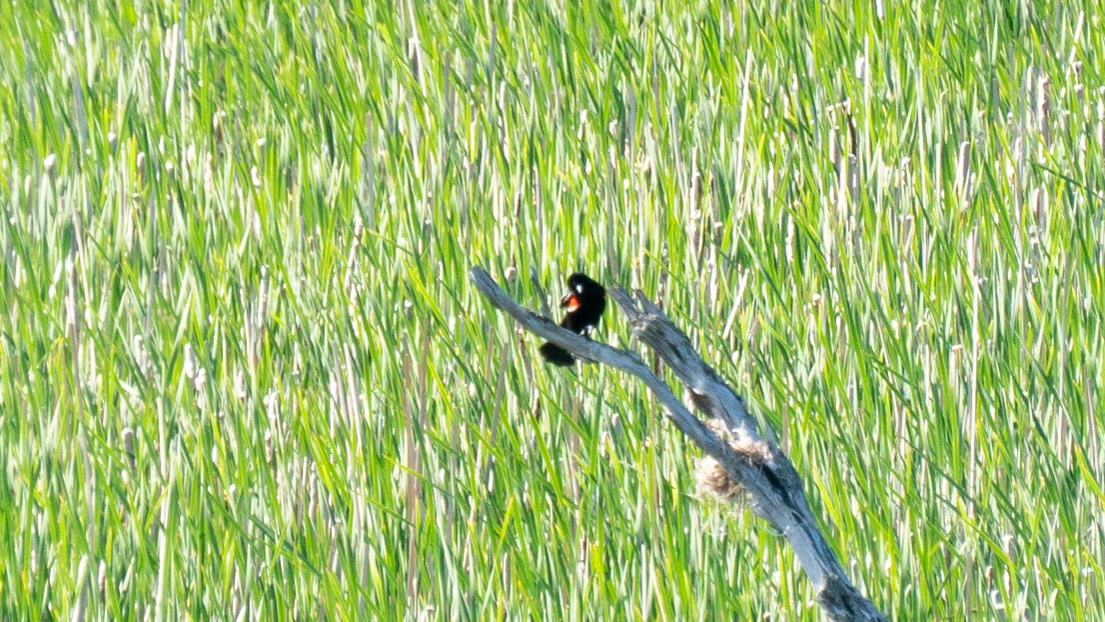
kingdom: Animalia
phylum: Chordata
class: Aves
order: Passeriformes
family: Icteridae
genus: Agelaius
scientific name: Agelaius phoeniceus
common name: Red-winged blackbird
